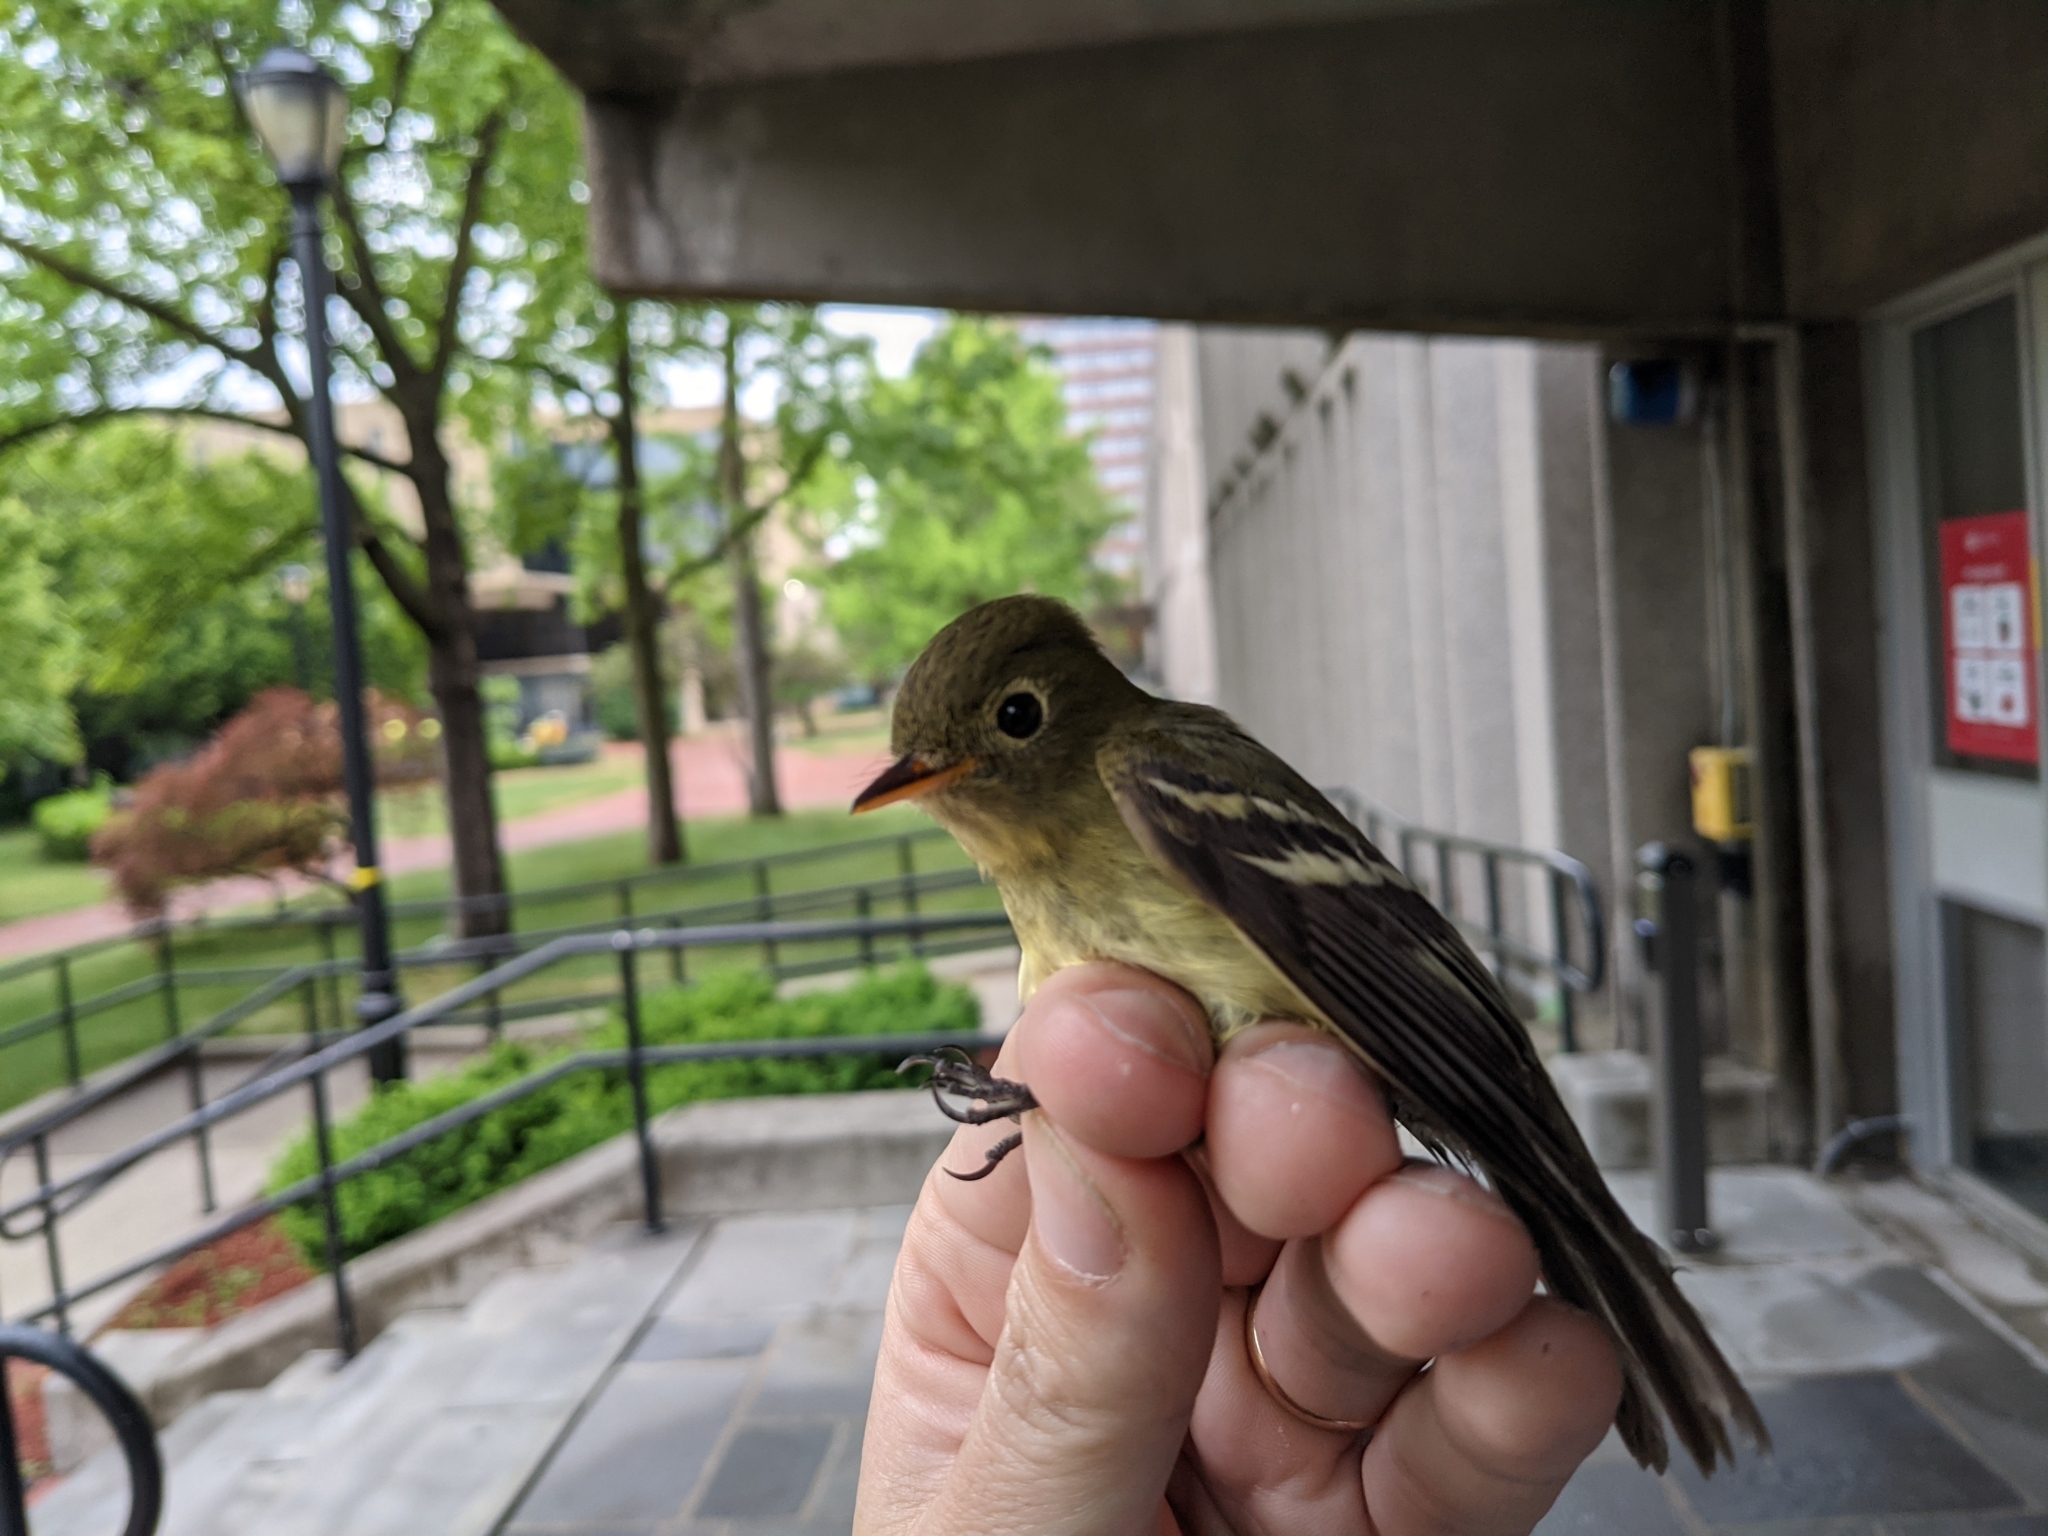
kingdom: Animalia
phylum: Chordata
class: Aves
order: Passeriformes
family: Tyrannidae
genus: Empidonax
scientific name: Empidonax flaviventris
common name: Yellow-bellied flycatcher
